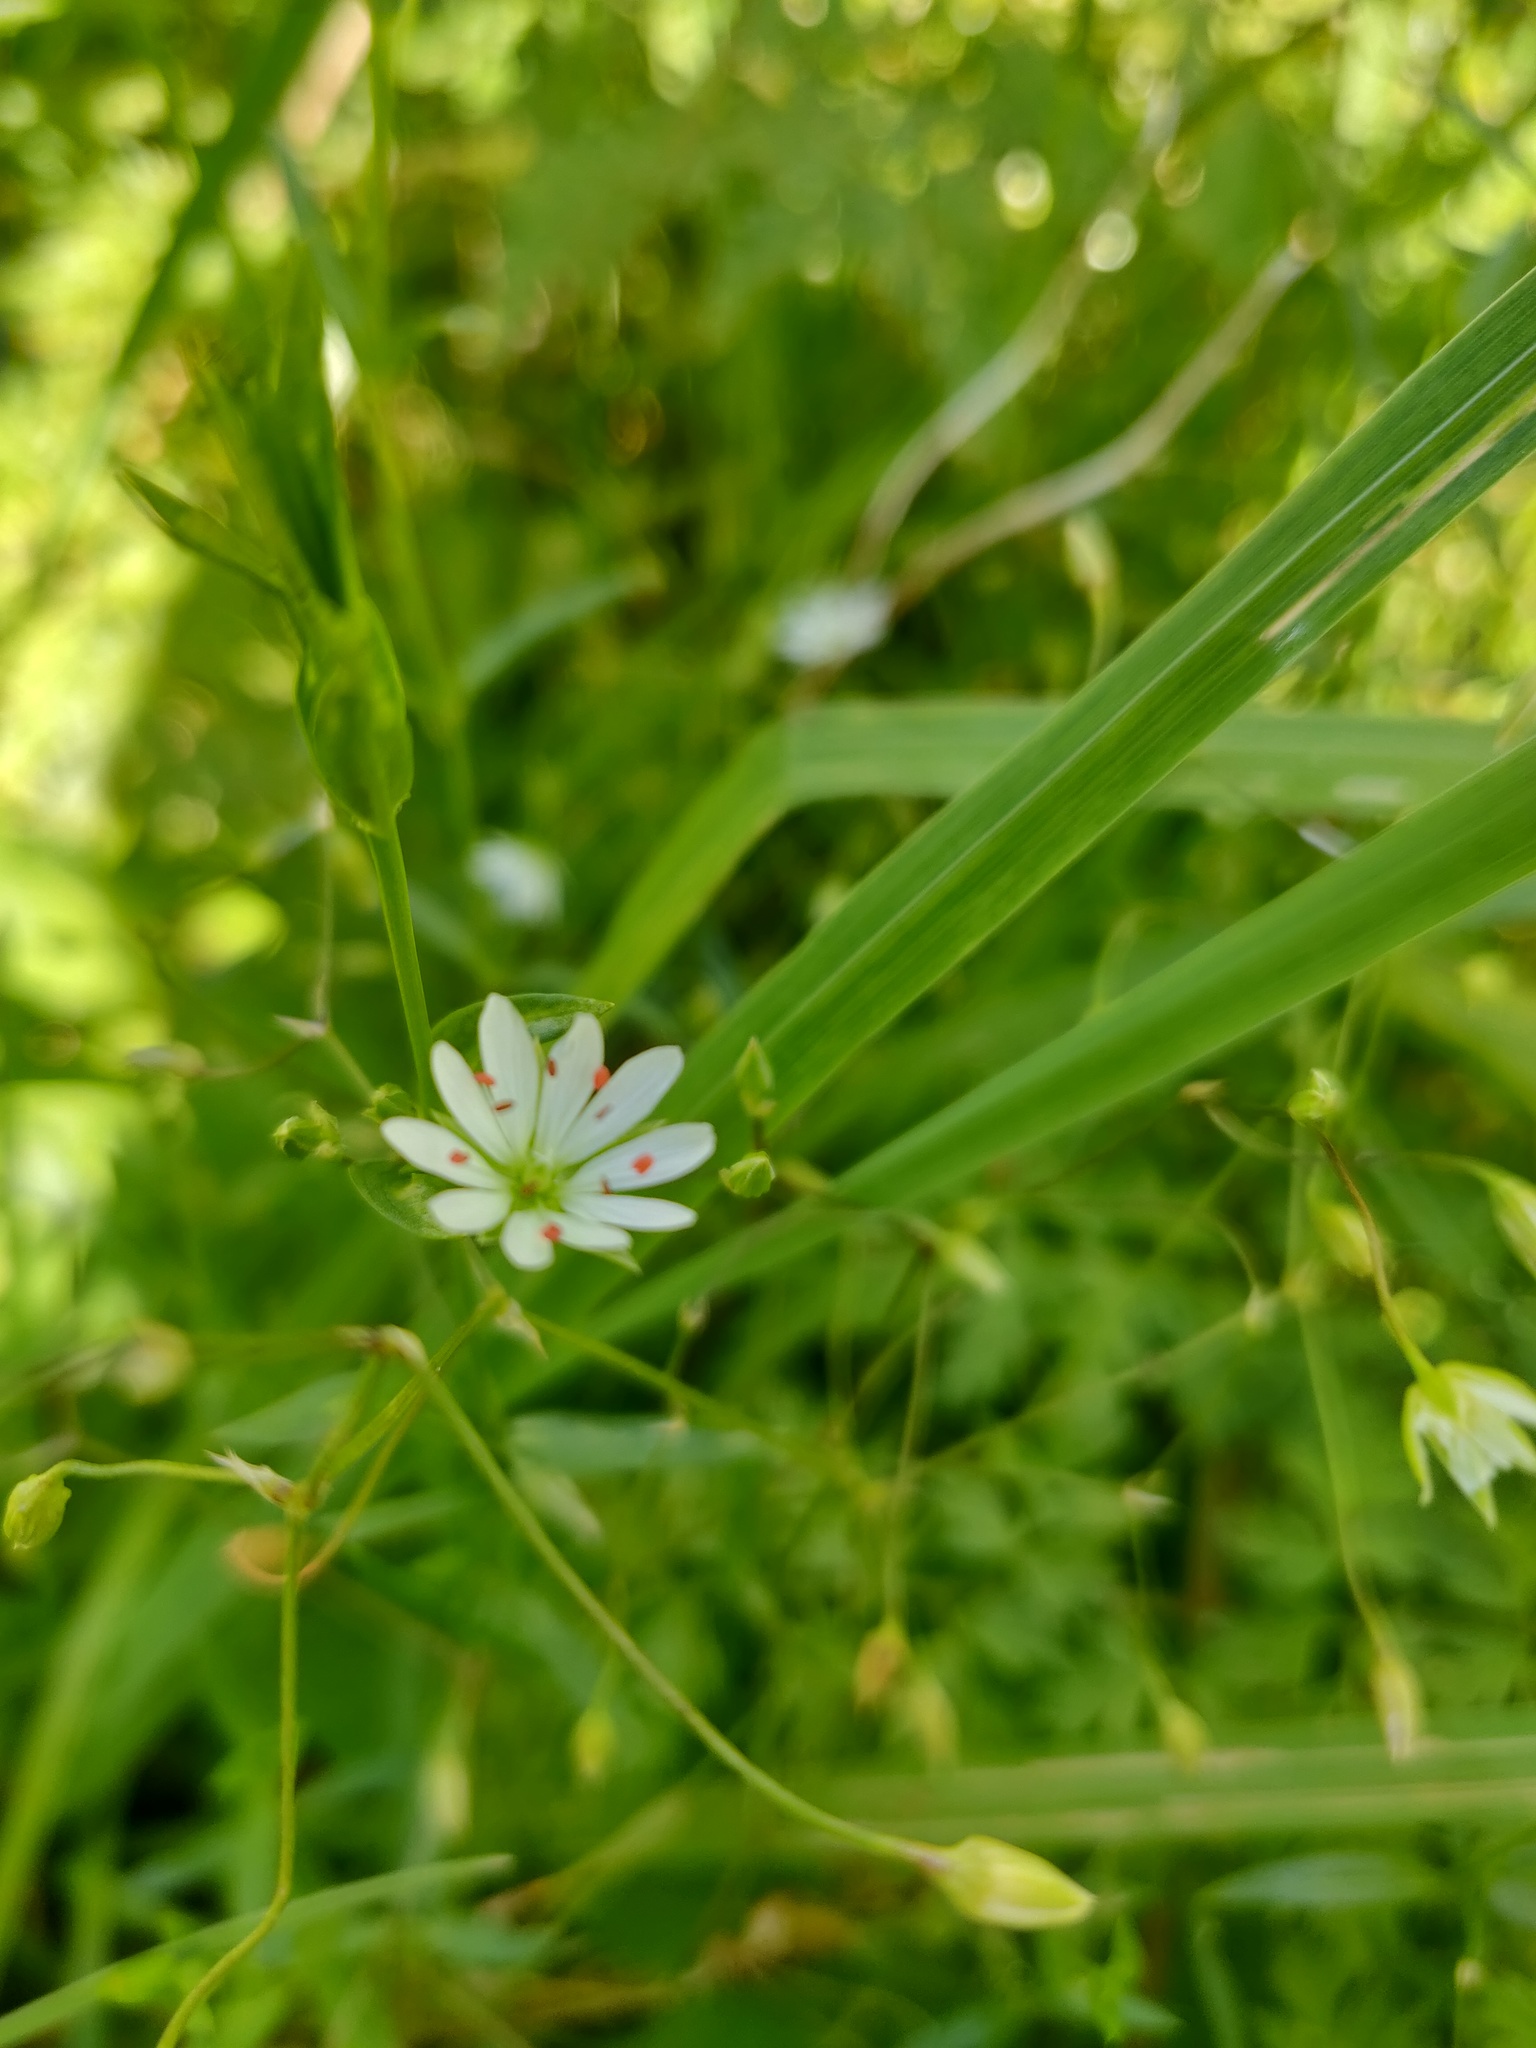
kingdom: Plantae
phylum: Tracheophyta
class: Magnoliopsida
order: Caryophyllales
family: Caryophyllaceae
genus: Stellaria
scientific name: Stellaria graminea
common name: Grass-like starwort
